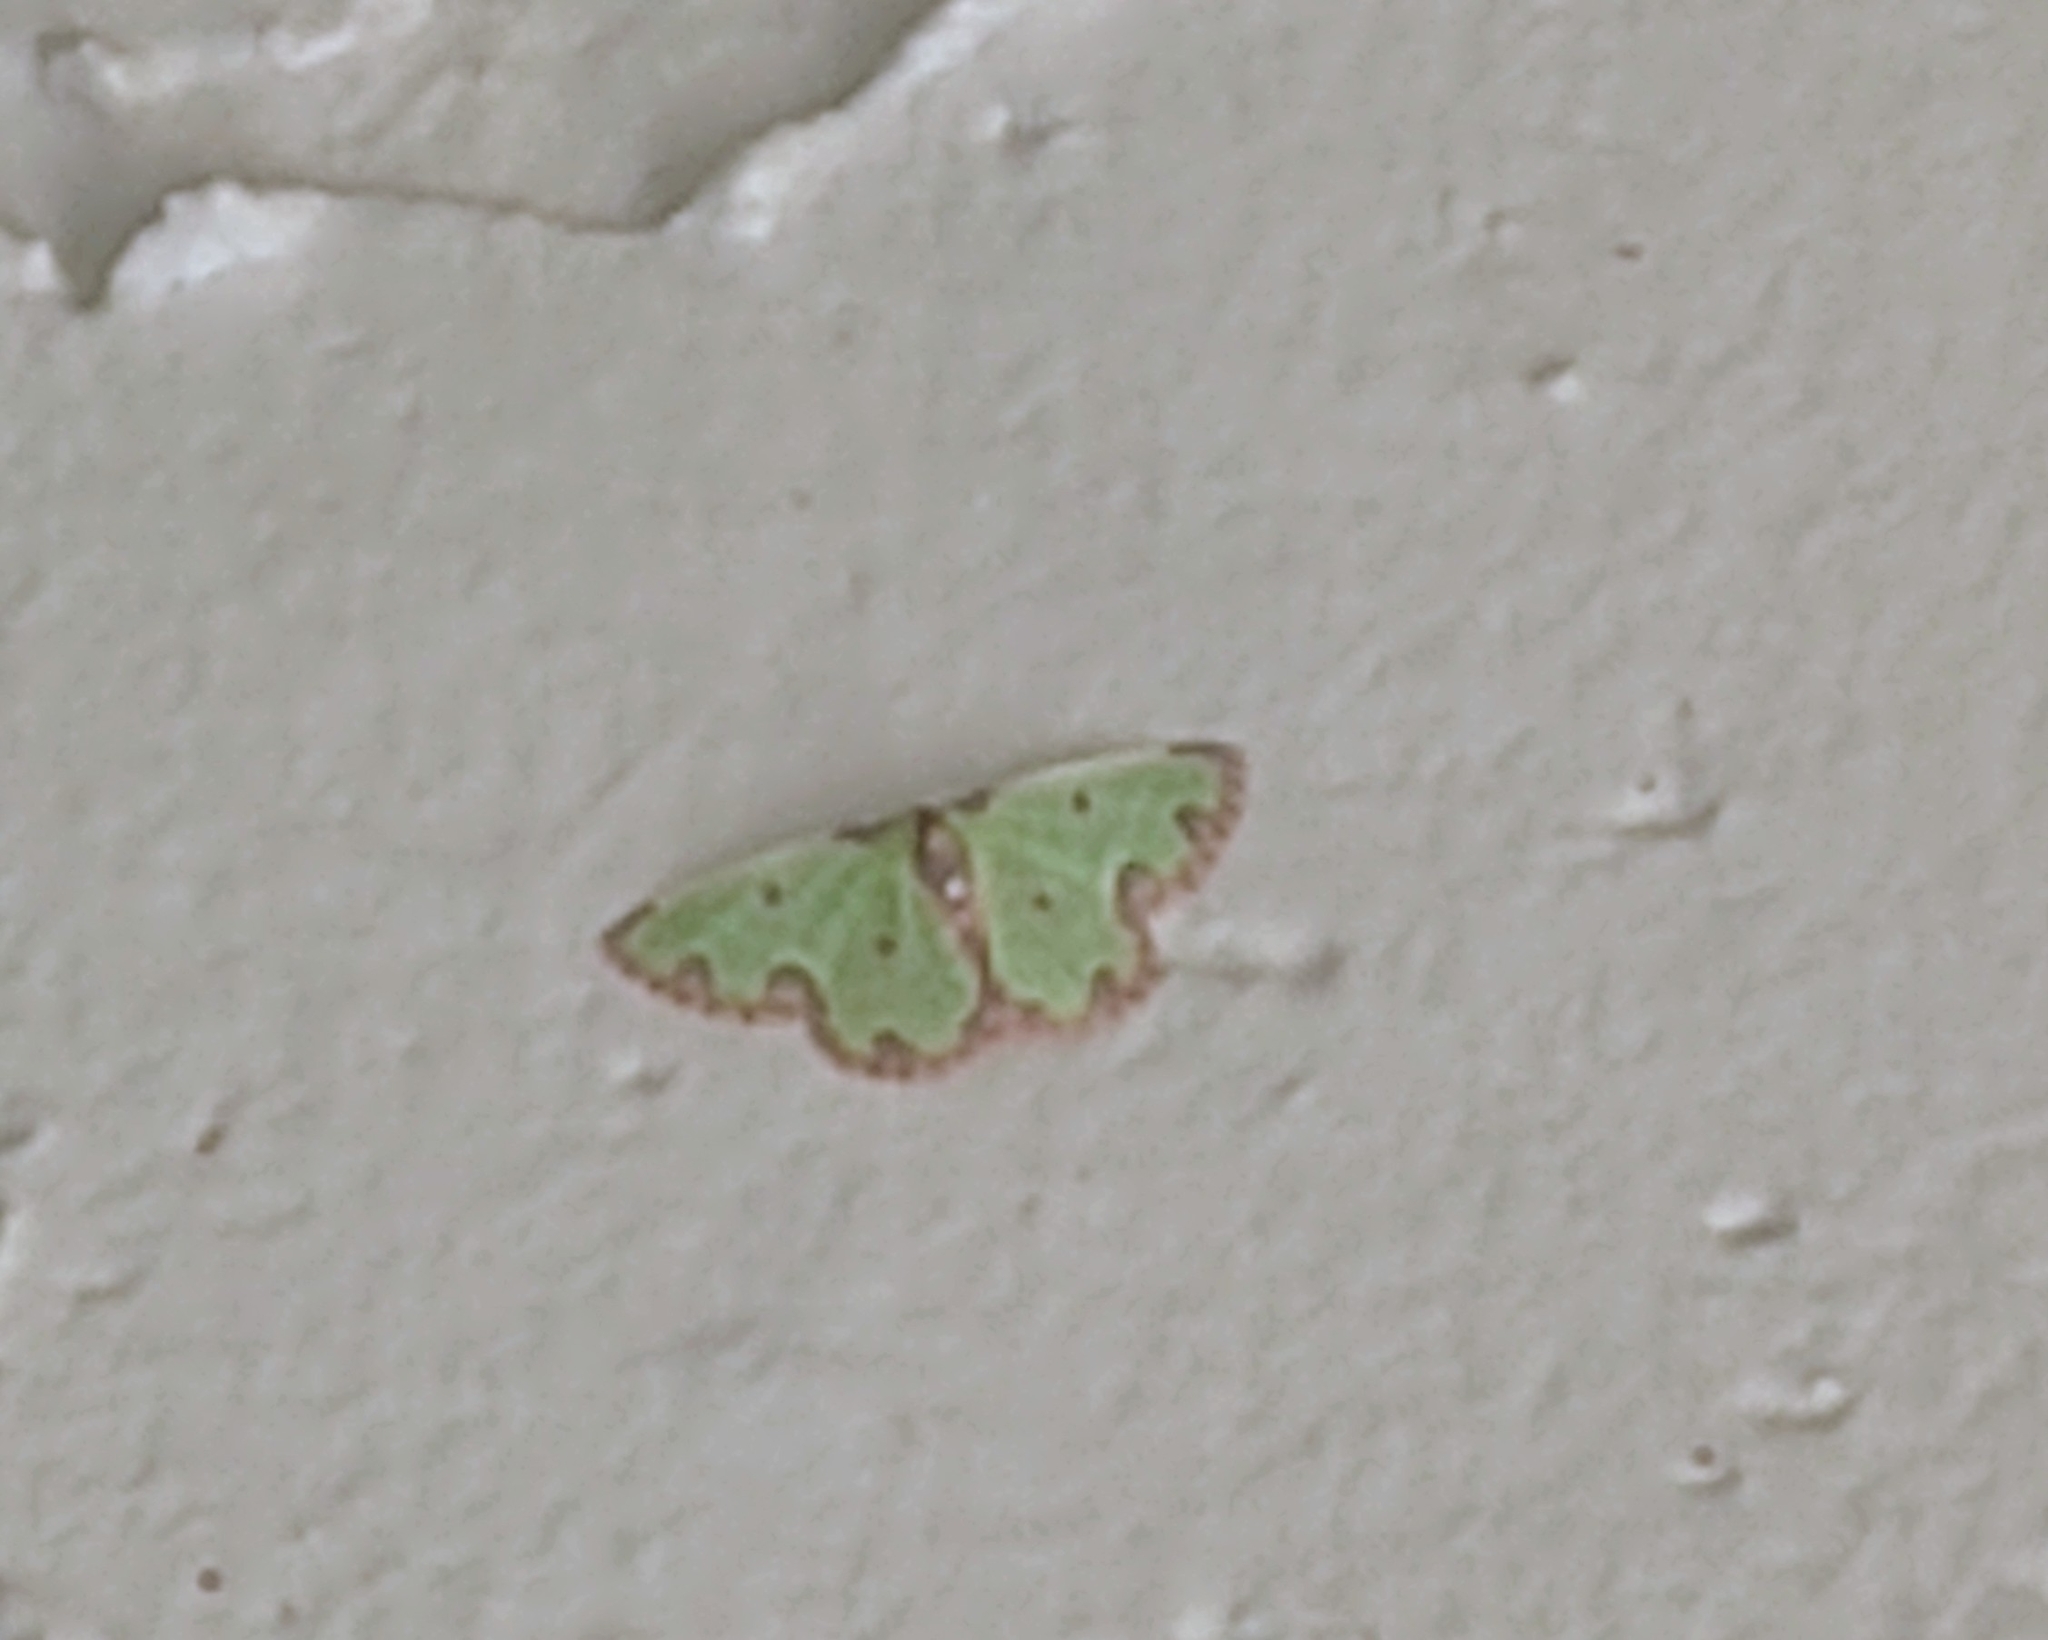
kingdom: Animalia
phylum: Arthropoda
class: Insecta
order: Lepidoptera
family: Geometridae
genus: Synchlora
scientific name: Synchlora xysteraria
